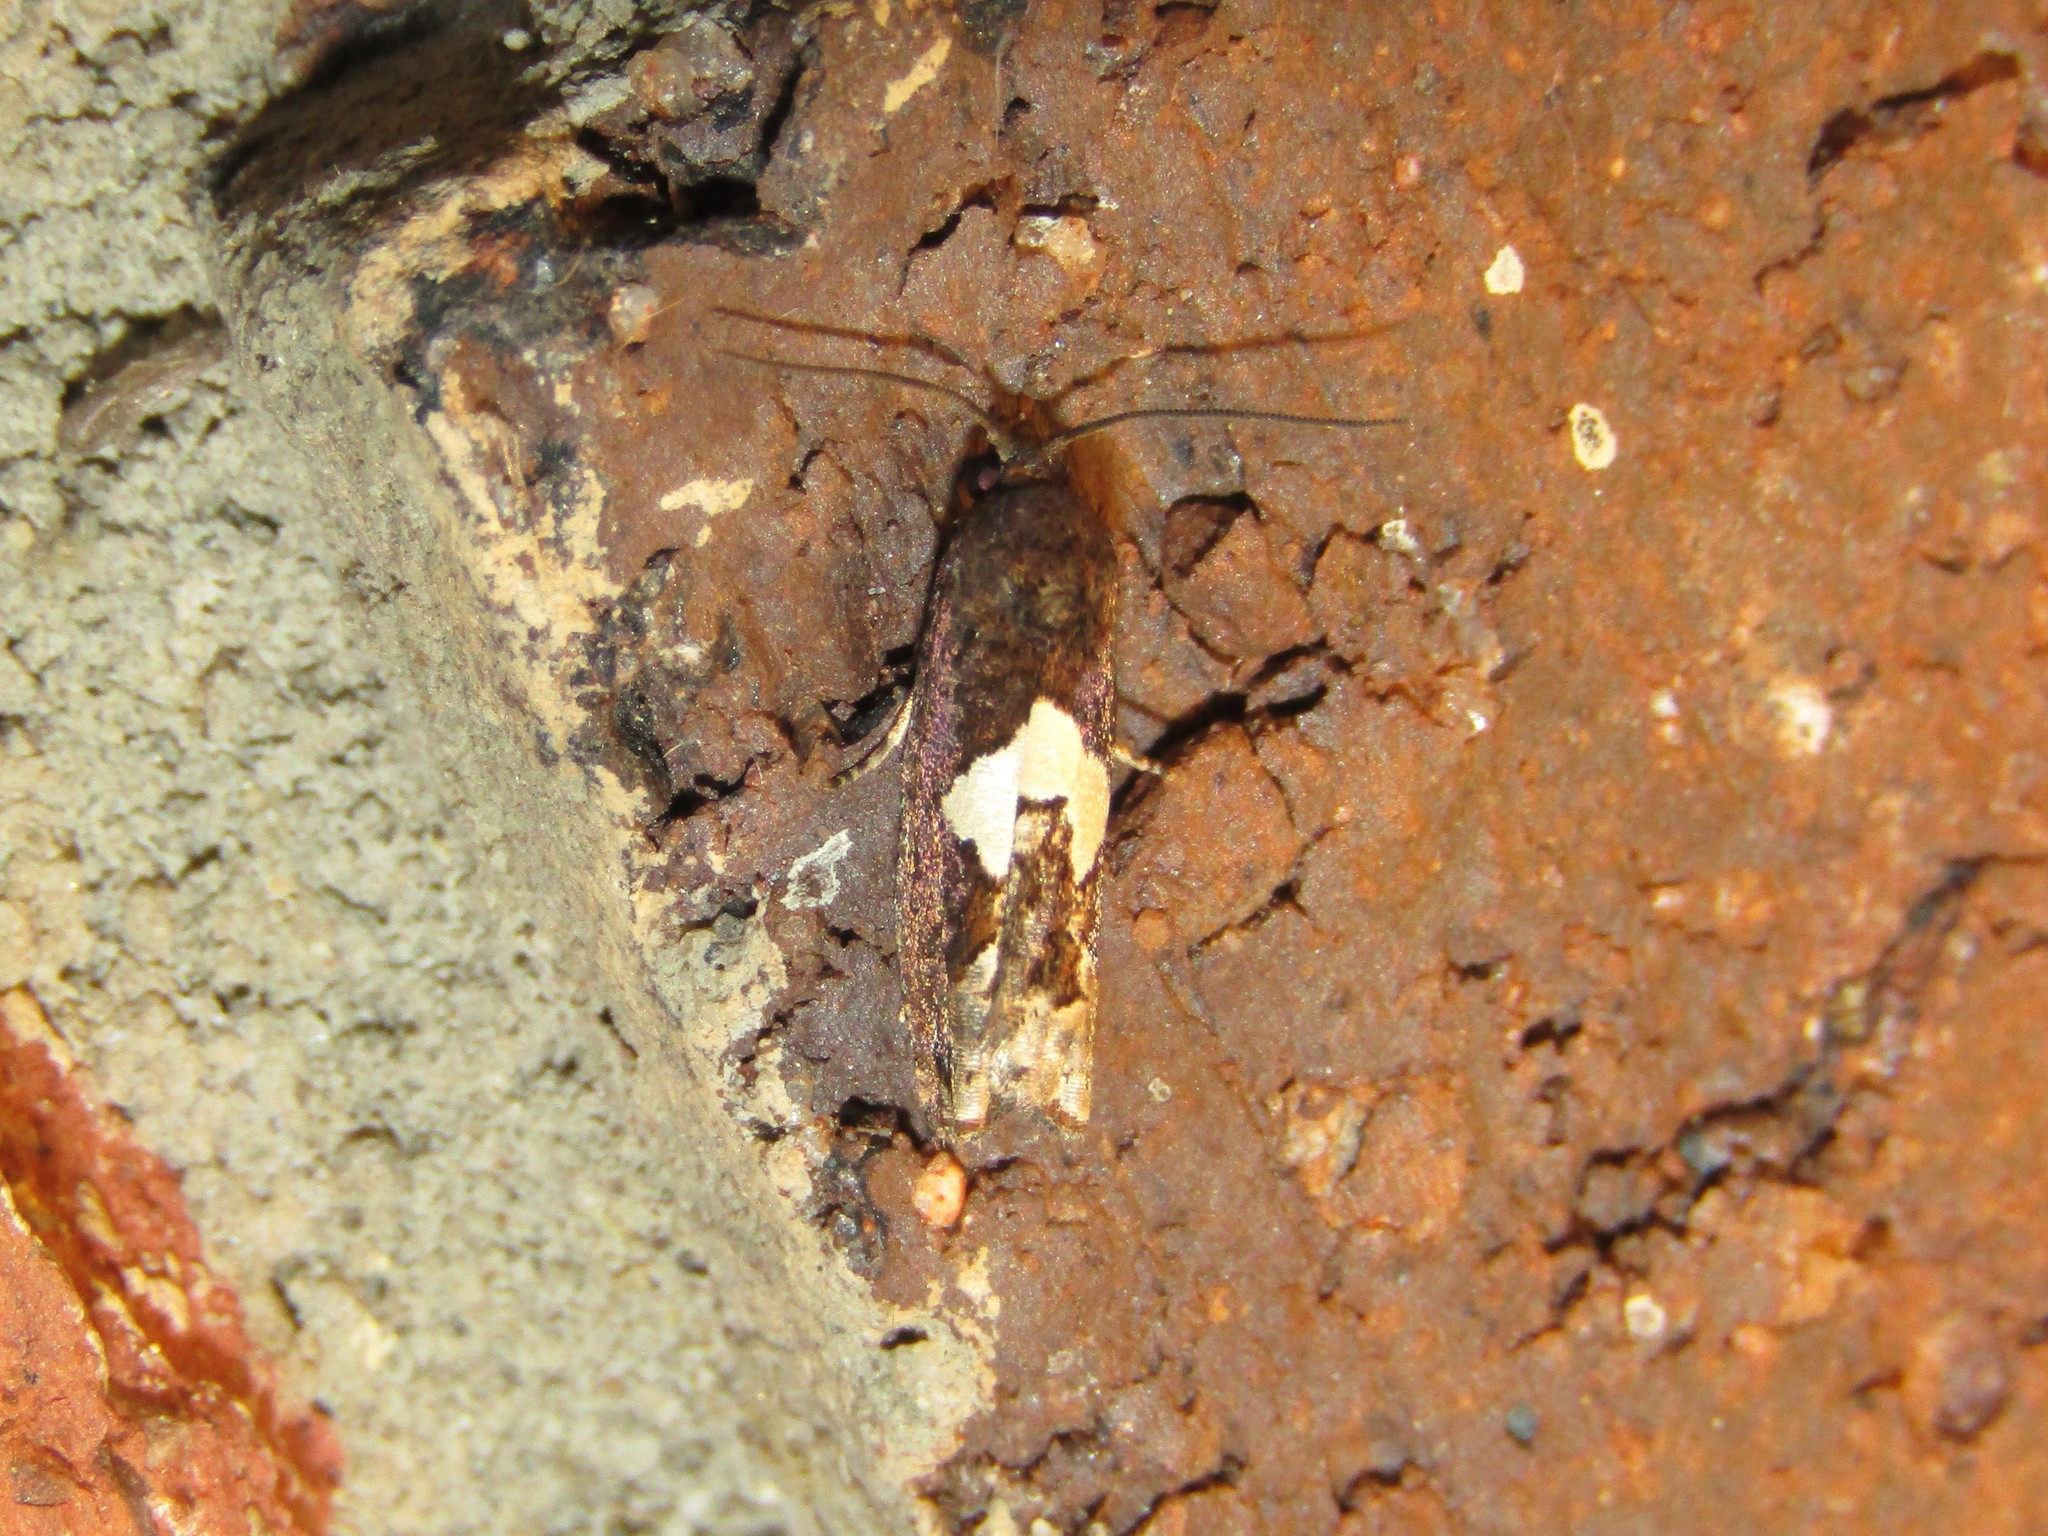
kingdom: Animalia
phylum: Arthropoda
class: Insecta
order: Lepidoptera
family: Tortricidae
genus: Epiblema
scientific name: Epiblema otiosana
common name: Bidens borer moth
